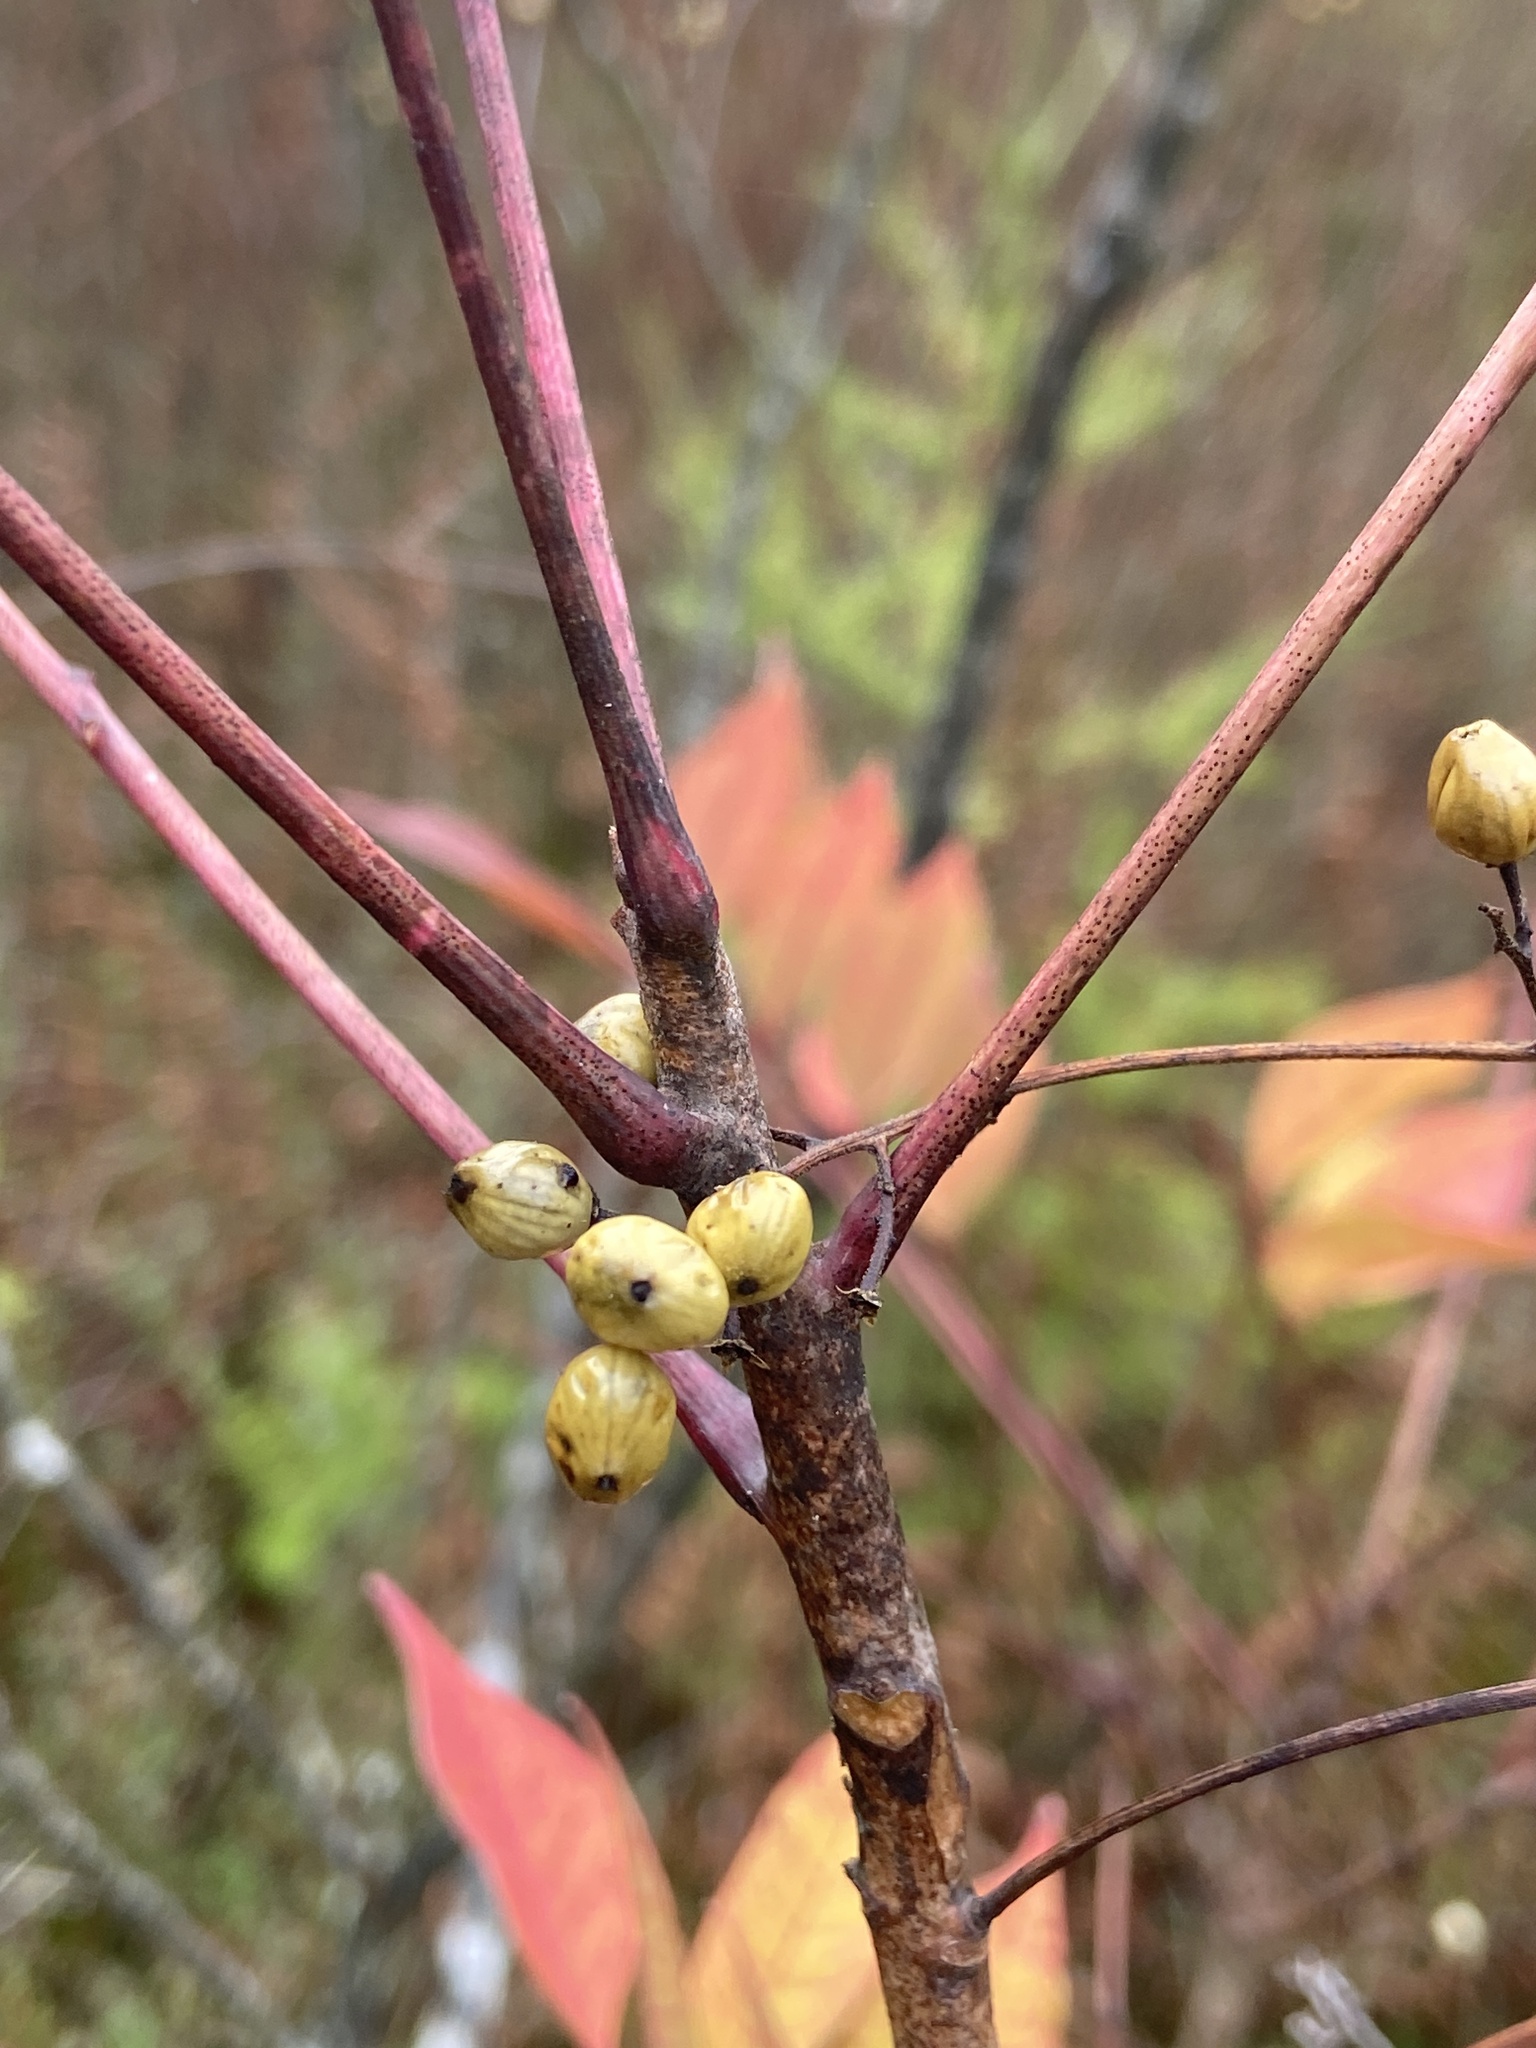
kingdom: Plantae
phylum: Tracheophyta
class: Magnoliopsida
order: Sapindales
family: Anacardiaceae
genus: Toxicodendron
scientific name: Toxicodendron vernix
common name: Poison sumac
